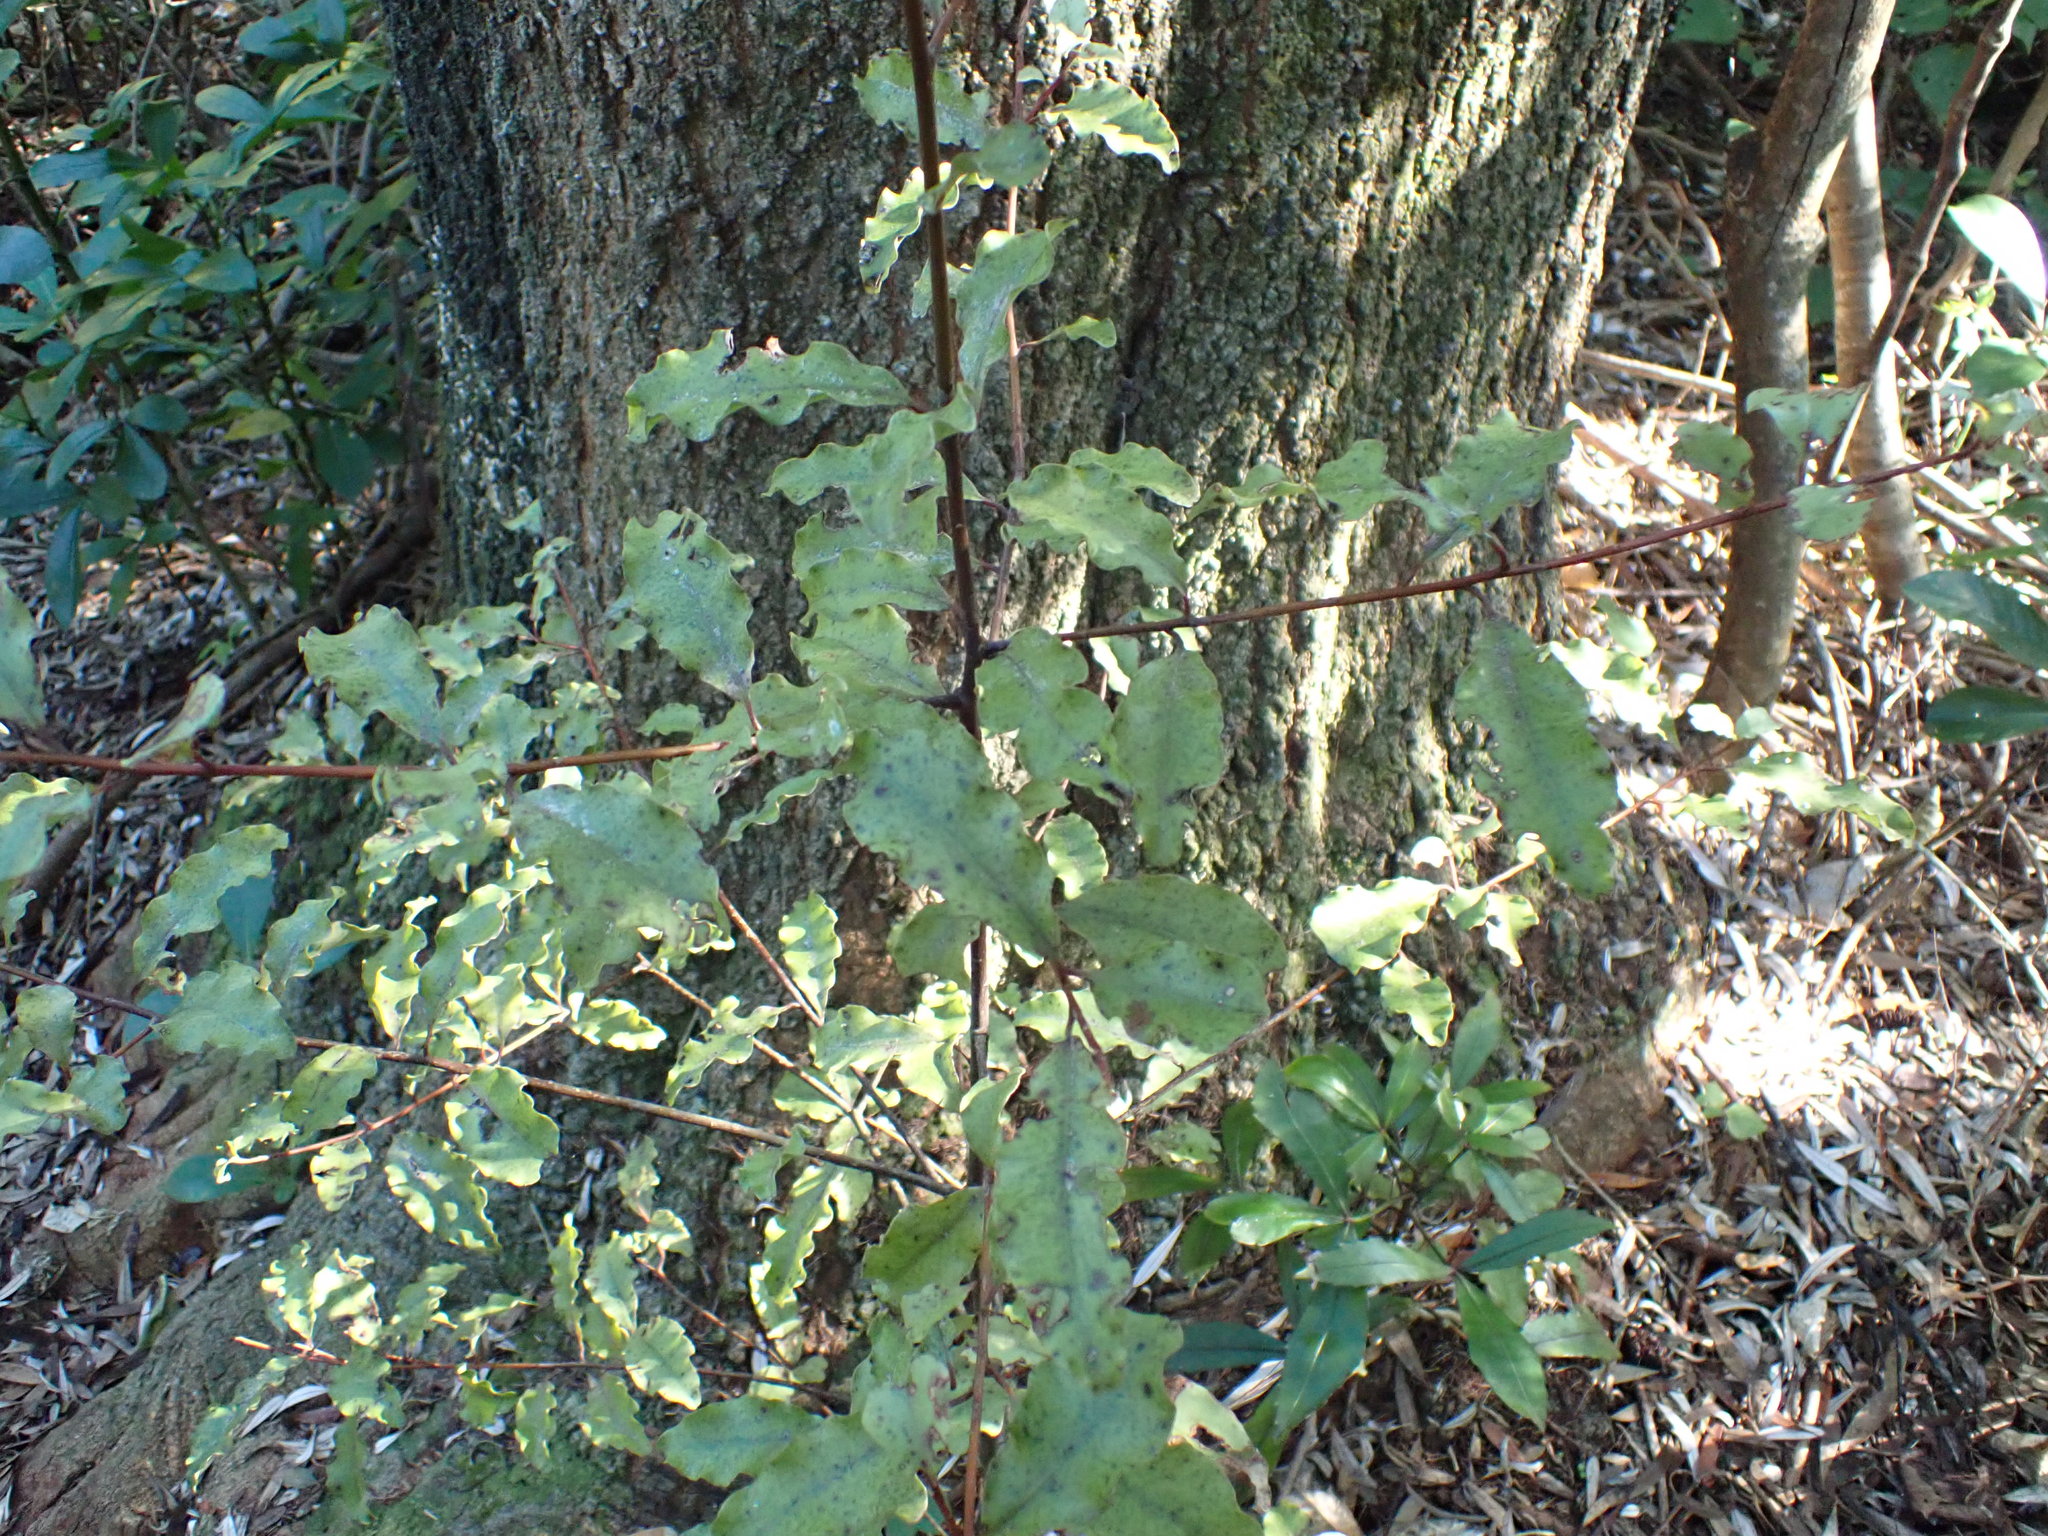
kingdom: Plantae
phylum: Tracheophyta
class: Magnoliopsida
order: Ericales
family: Primulaceae
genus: Myrsine
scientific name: Myrsine australis
